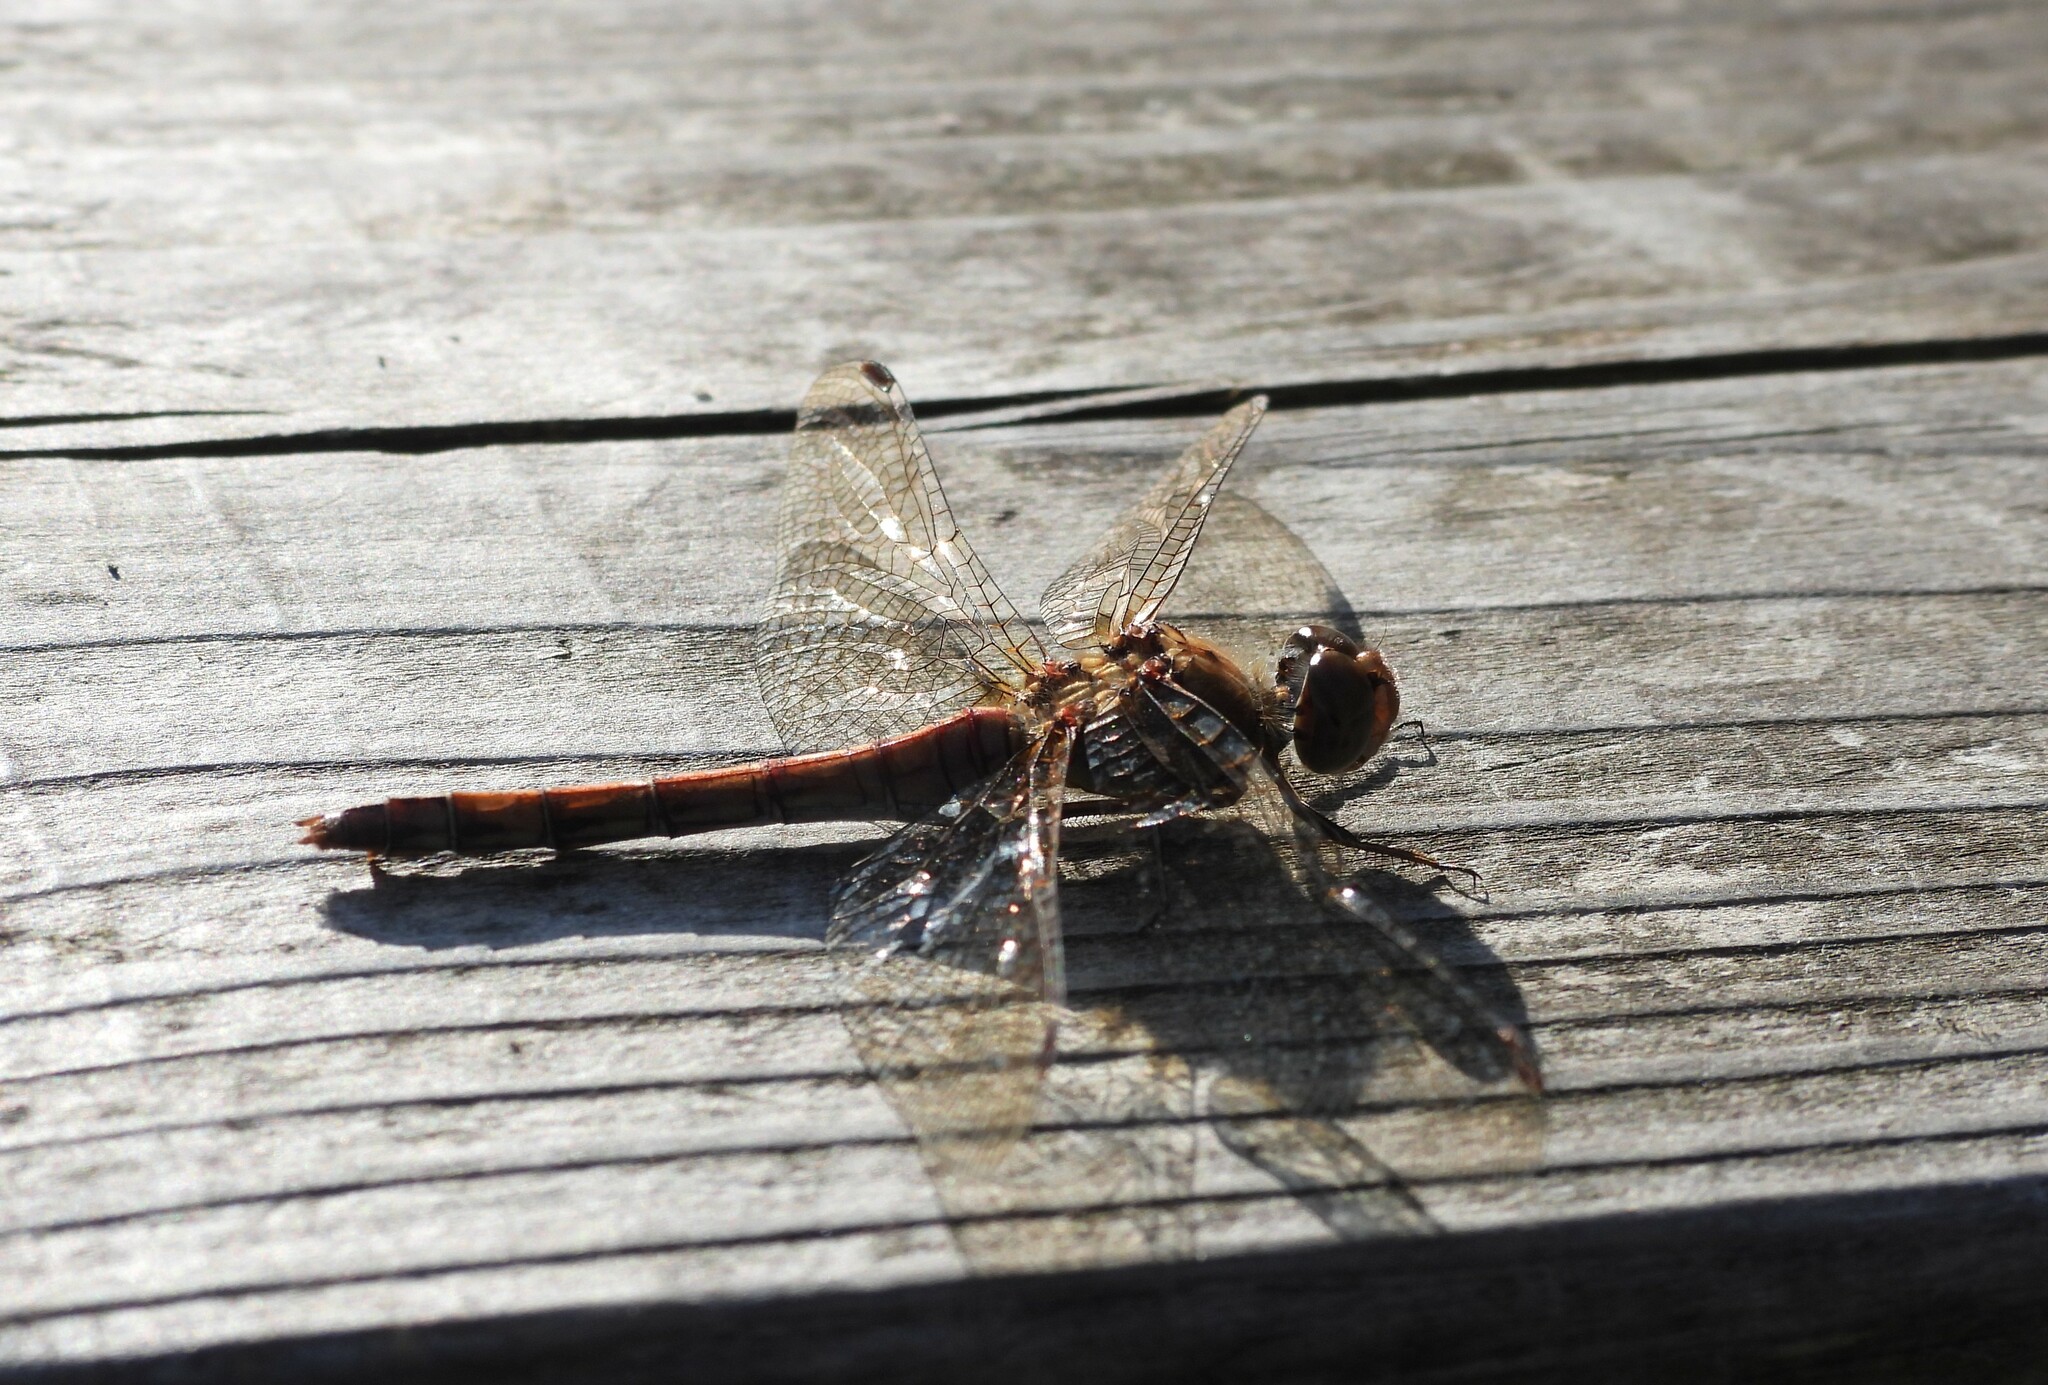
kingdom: Animalia
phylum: Arthropoda
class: Insecta
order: Odonata
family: Libellulidae
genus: Sympetrum
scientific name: Sympetrum striolatum
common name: Common darter
